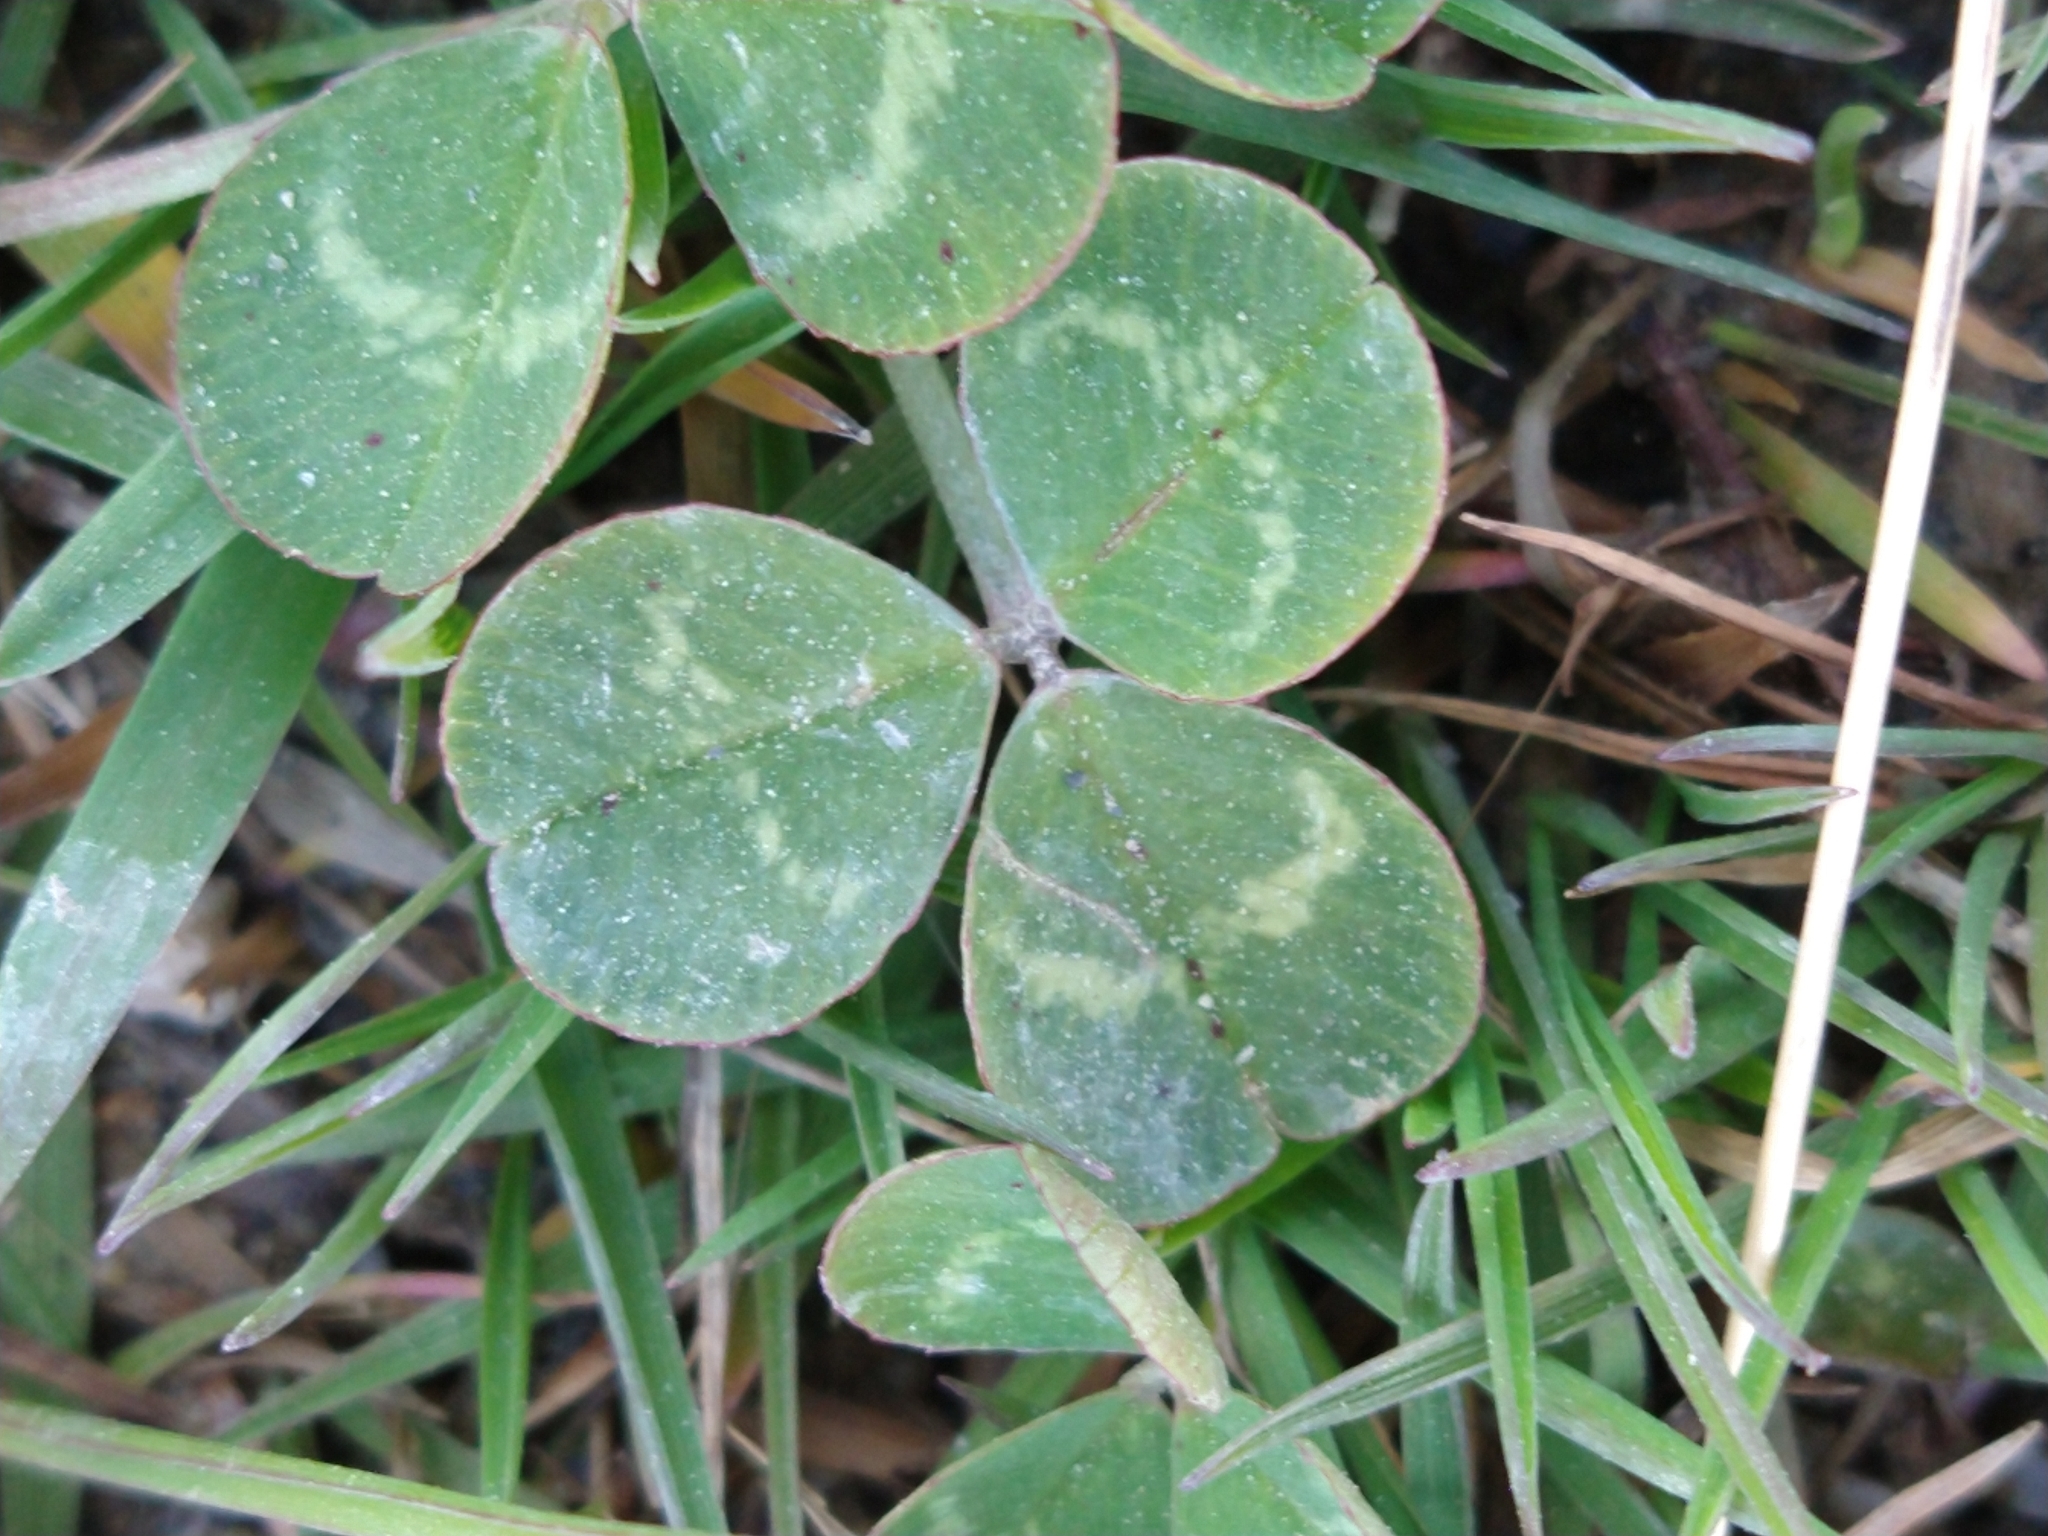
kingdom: Plantae
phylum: Tracheophyta
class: Magnoliopsida
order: Fabales
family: Fabaceae
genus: Trifolium
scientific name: Trifolium repens
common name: White clover
